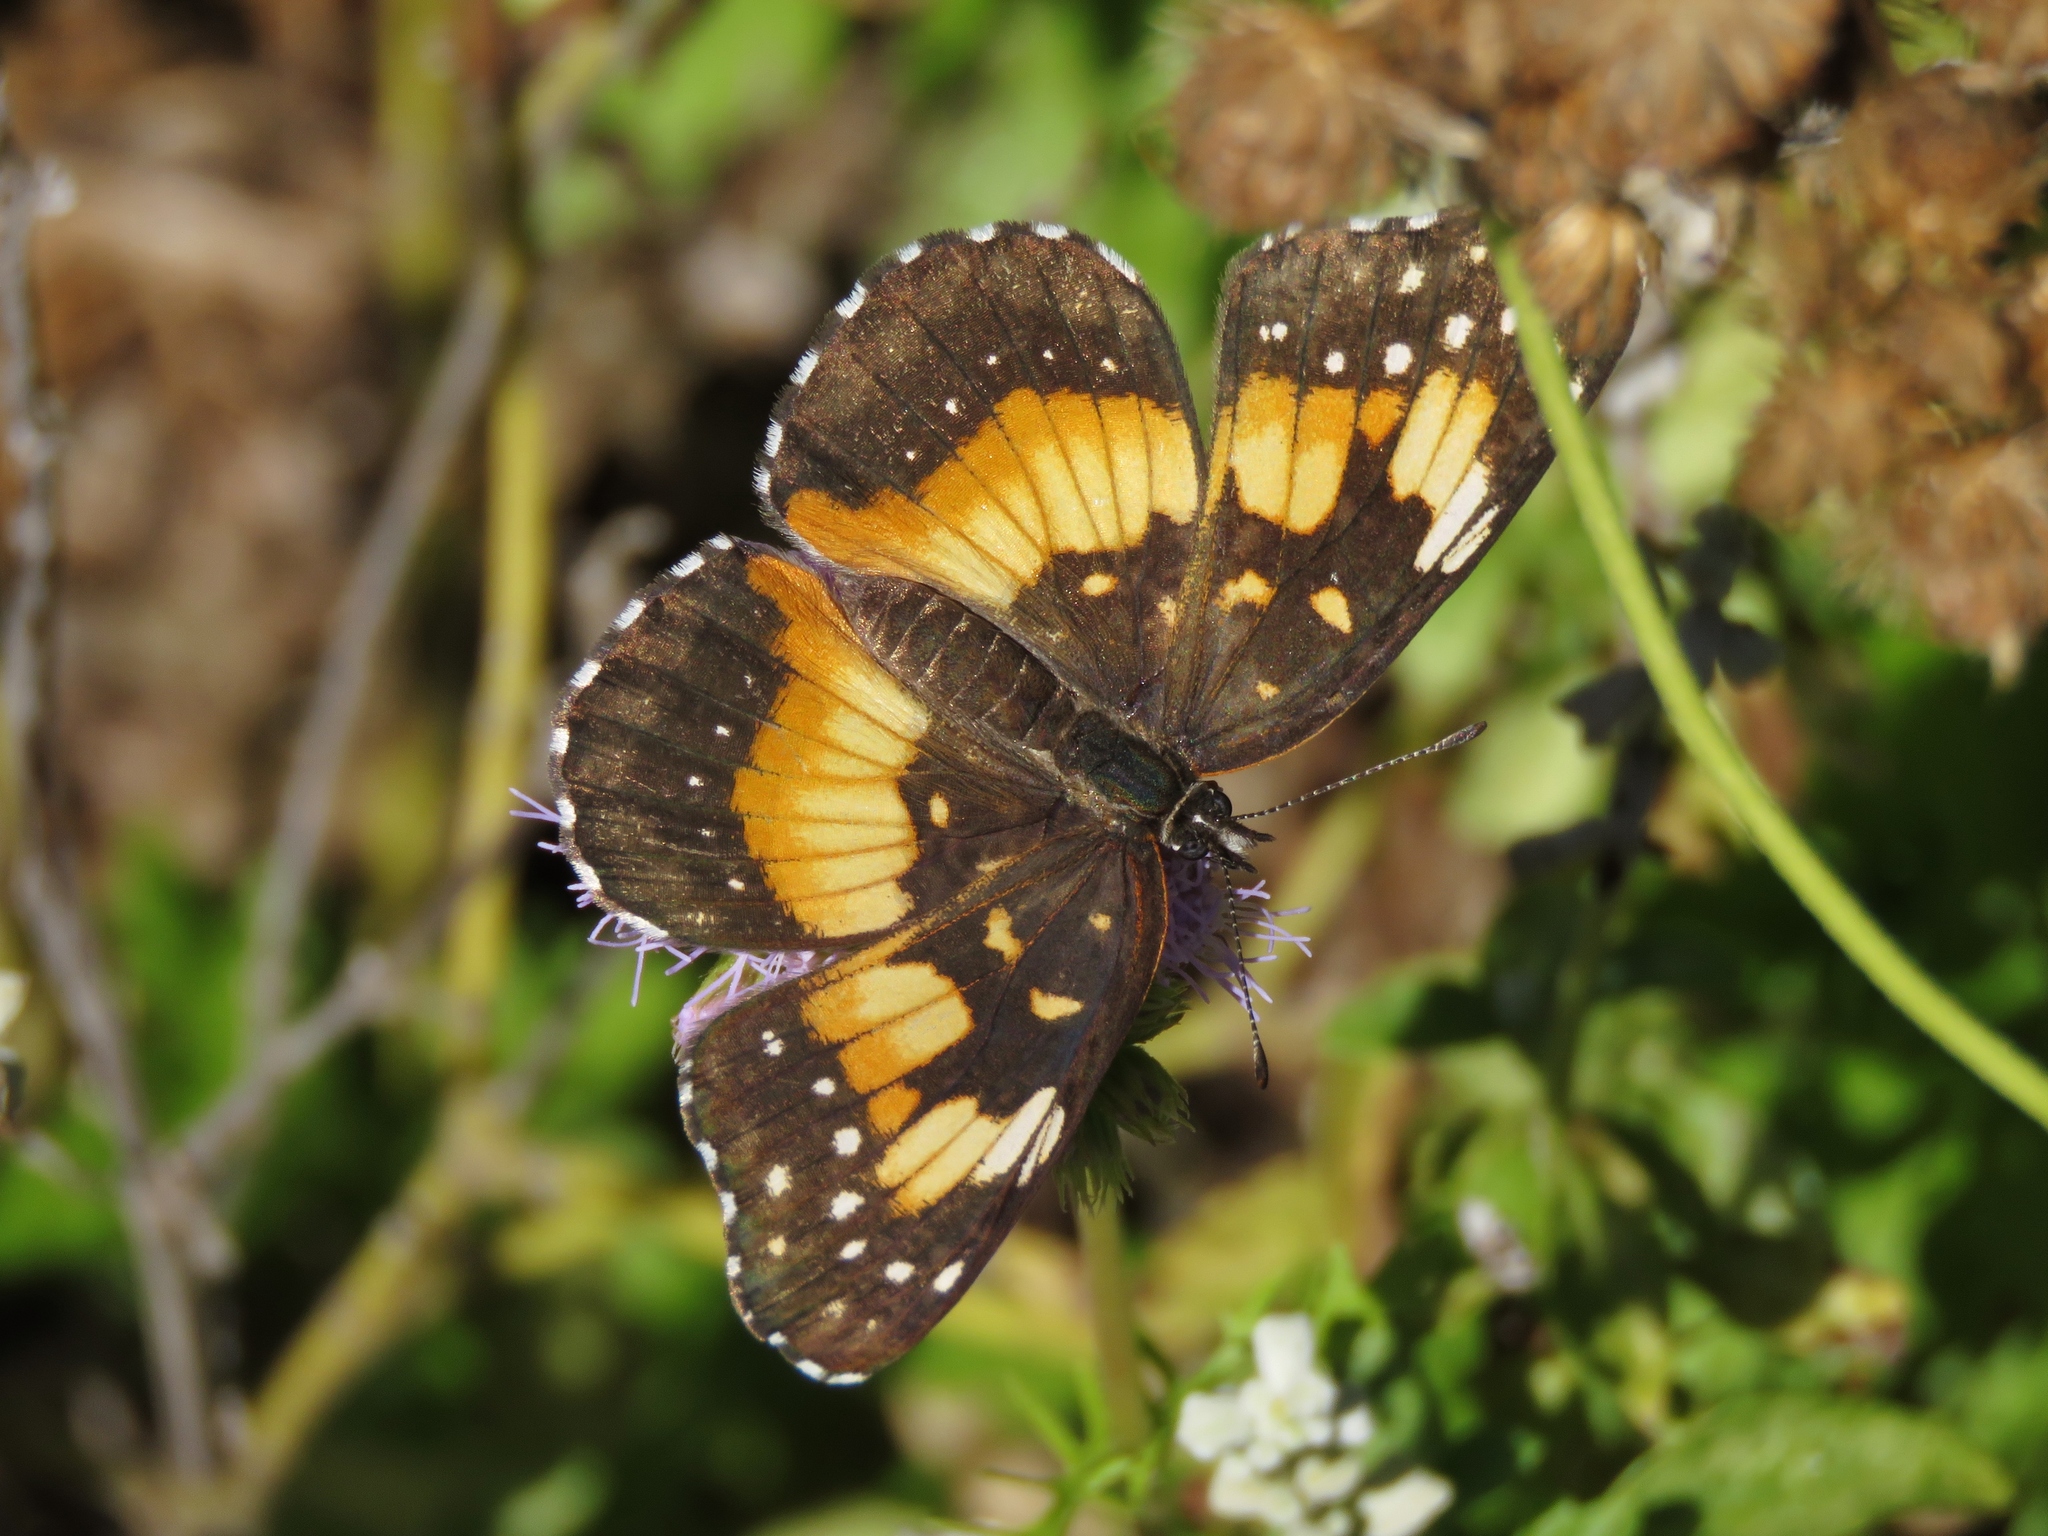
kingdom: Animalia
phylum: Arthropoda
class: Insecta
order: Lepidoptera
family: Nymphalidae
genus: Chlosyne
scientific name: Chlosyne lacinia
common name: Bordered patch
